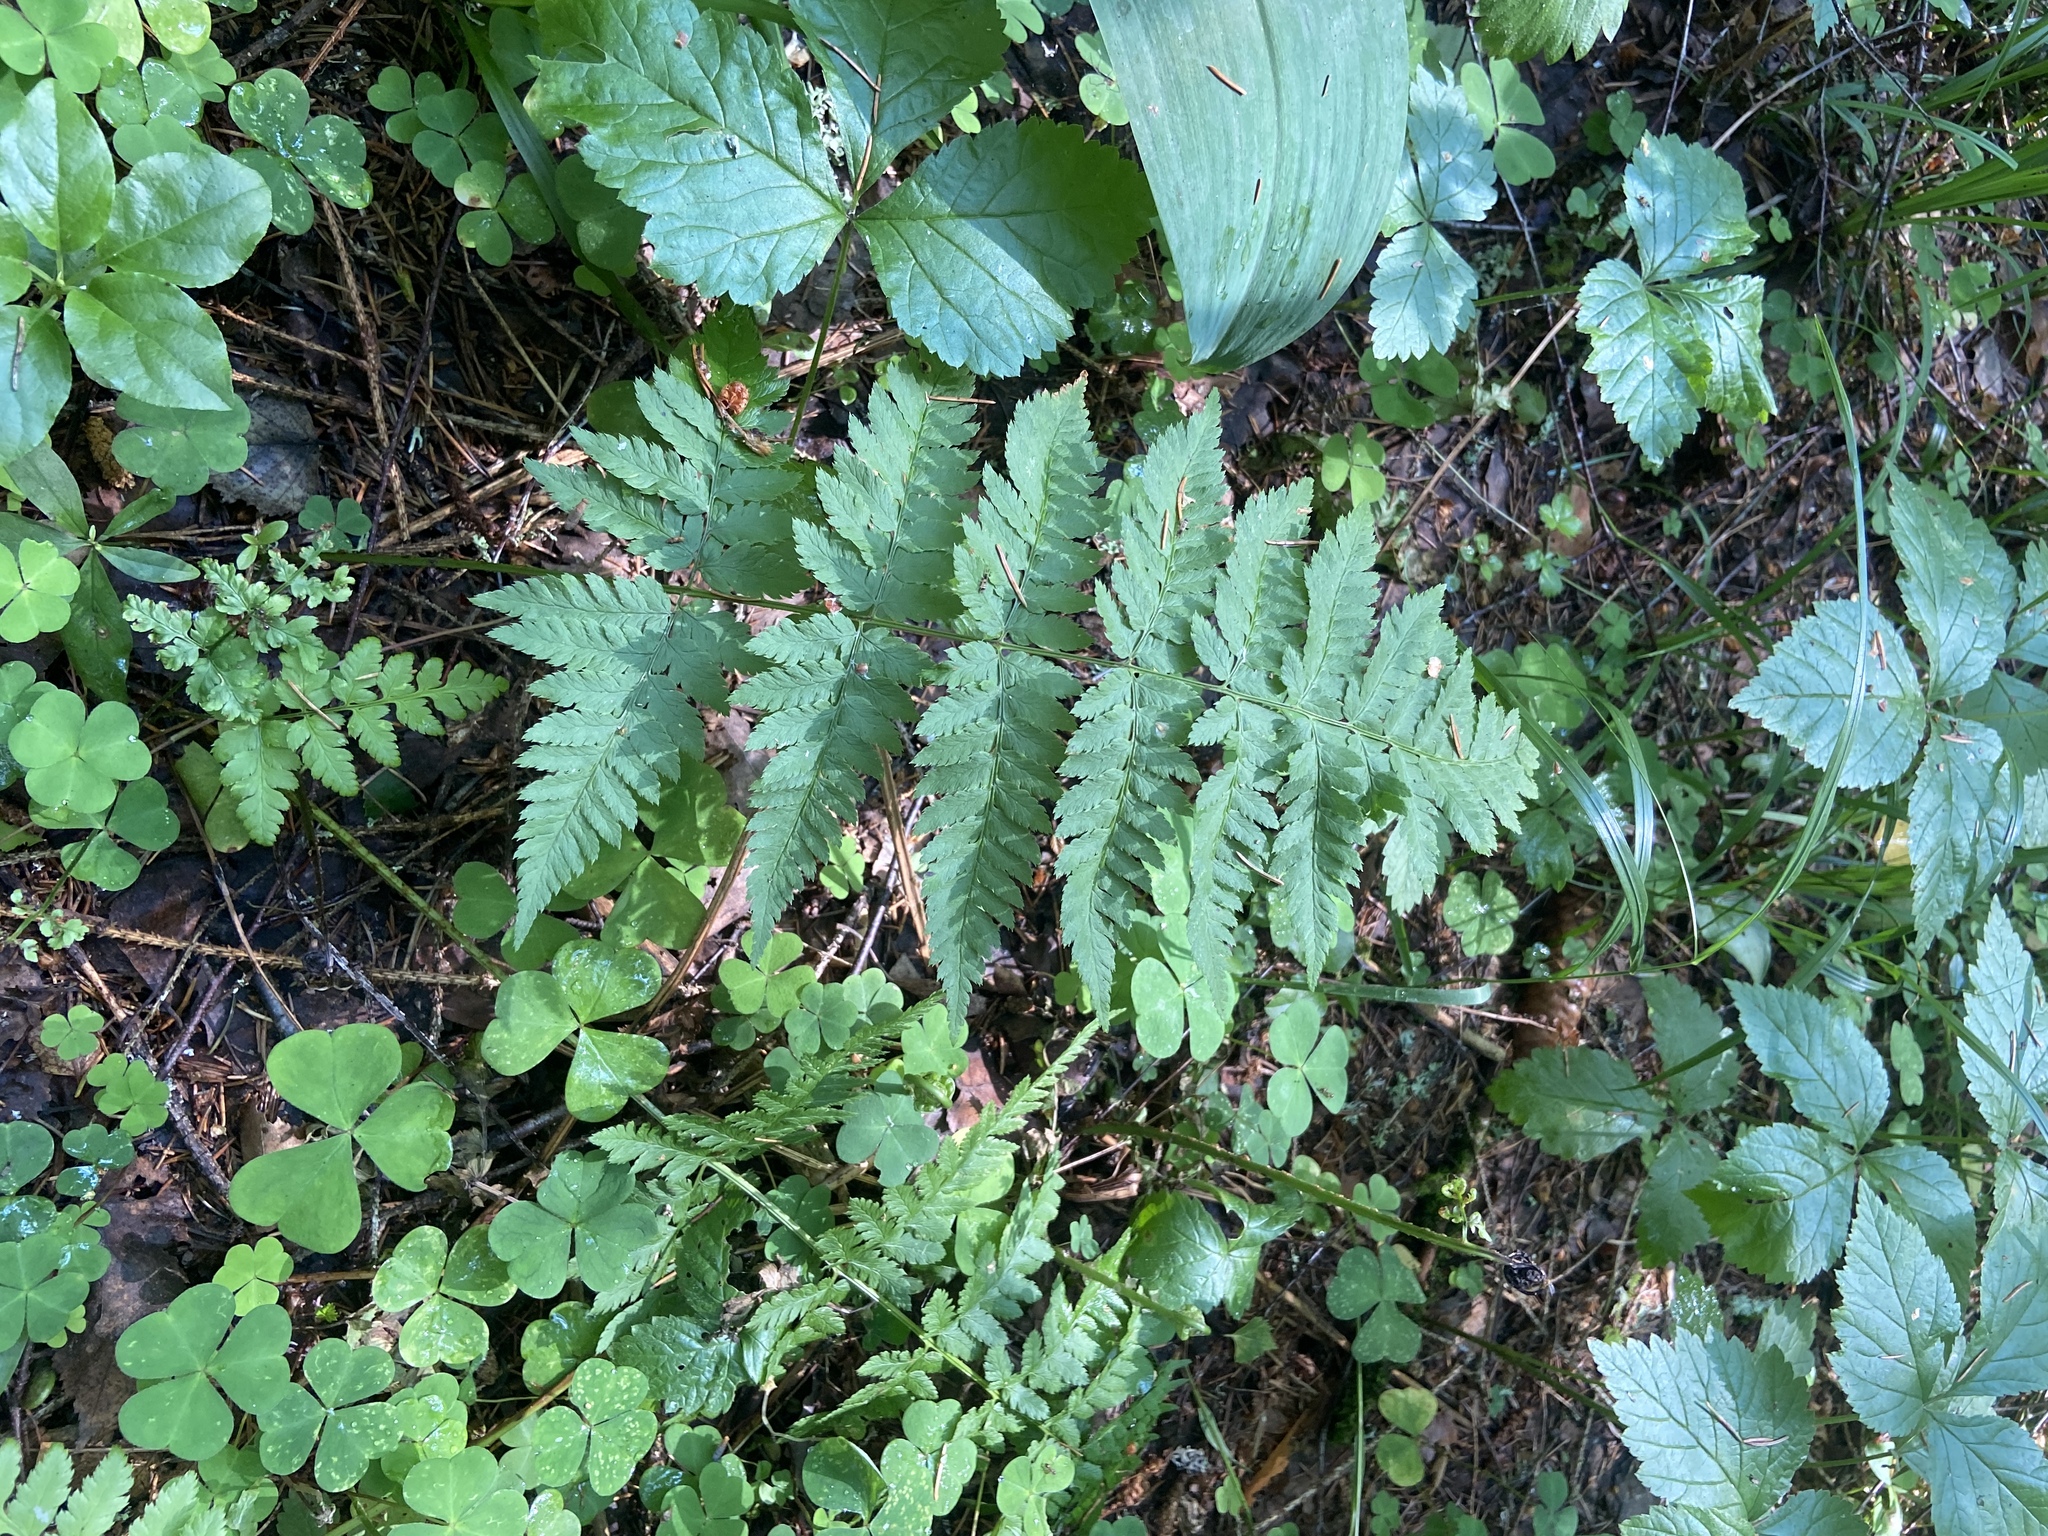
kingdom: Plantae
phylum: Tracheophyta
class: Polypodiopsida
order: Polypodiales
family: Dryopteridaceae
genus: Dryopteris
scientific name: Dryopteris carthusiana
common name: Narrow buckler-fern
